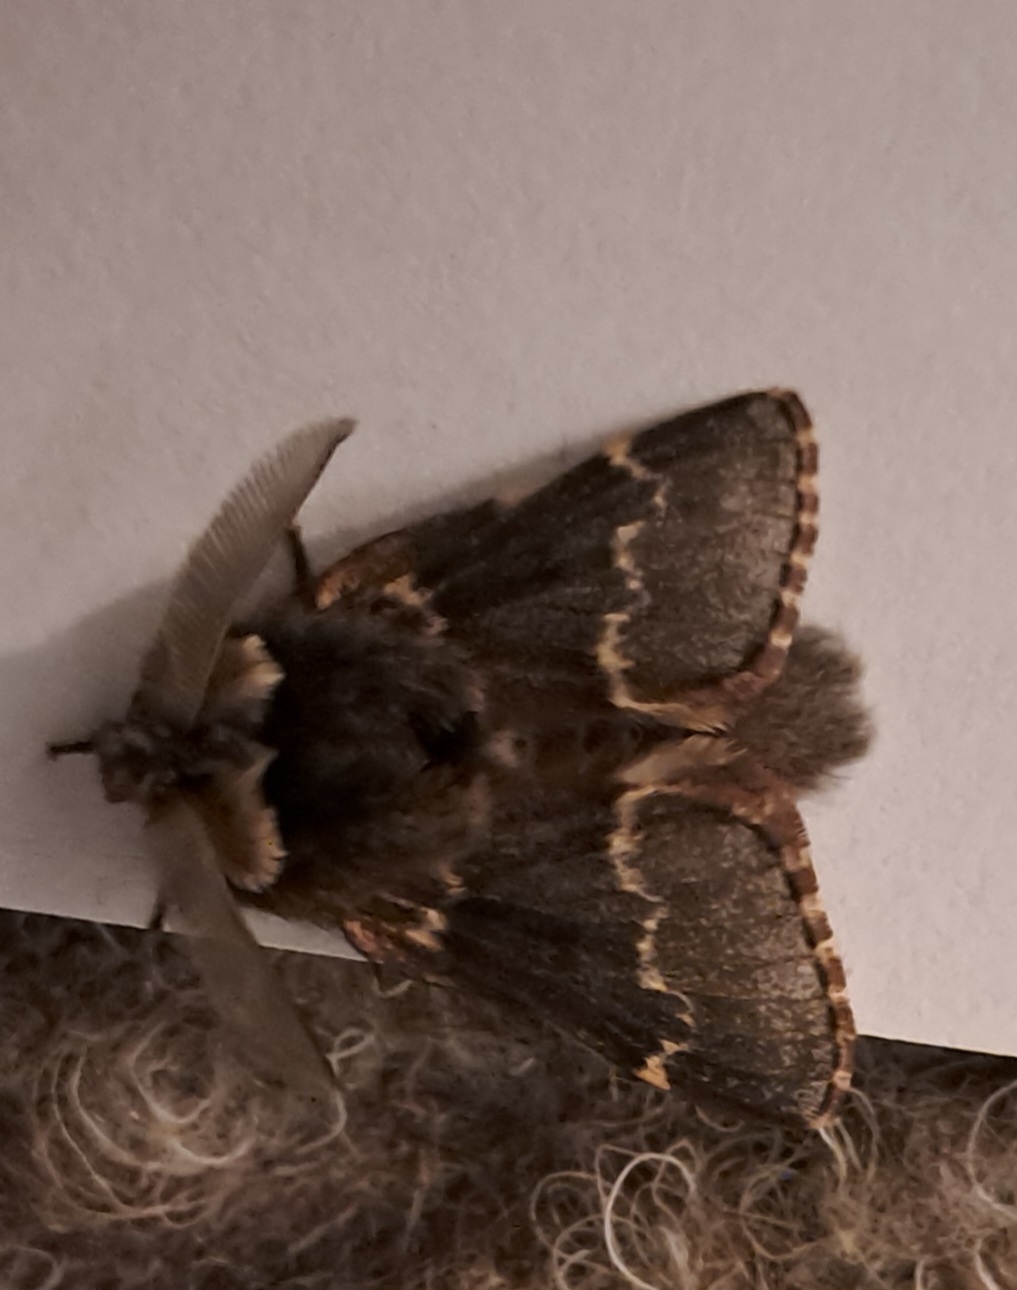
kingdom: Animalia
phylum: Arthropoda
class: Insecta
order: Lepidoptera
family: Lasiocampidae
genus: Poecilocampa
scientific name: Poecilocampa populi
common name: December moth
